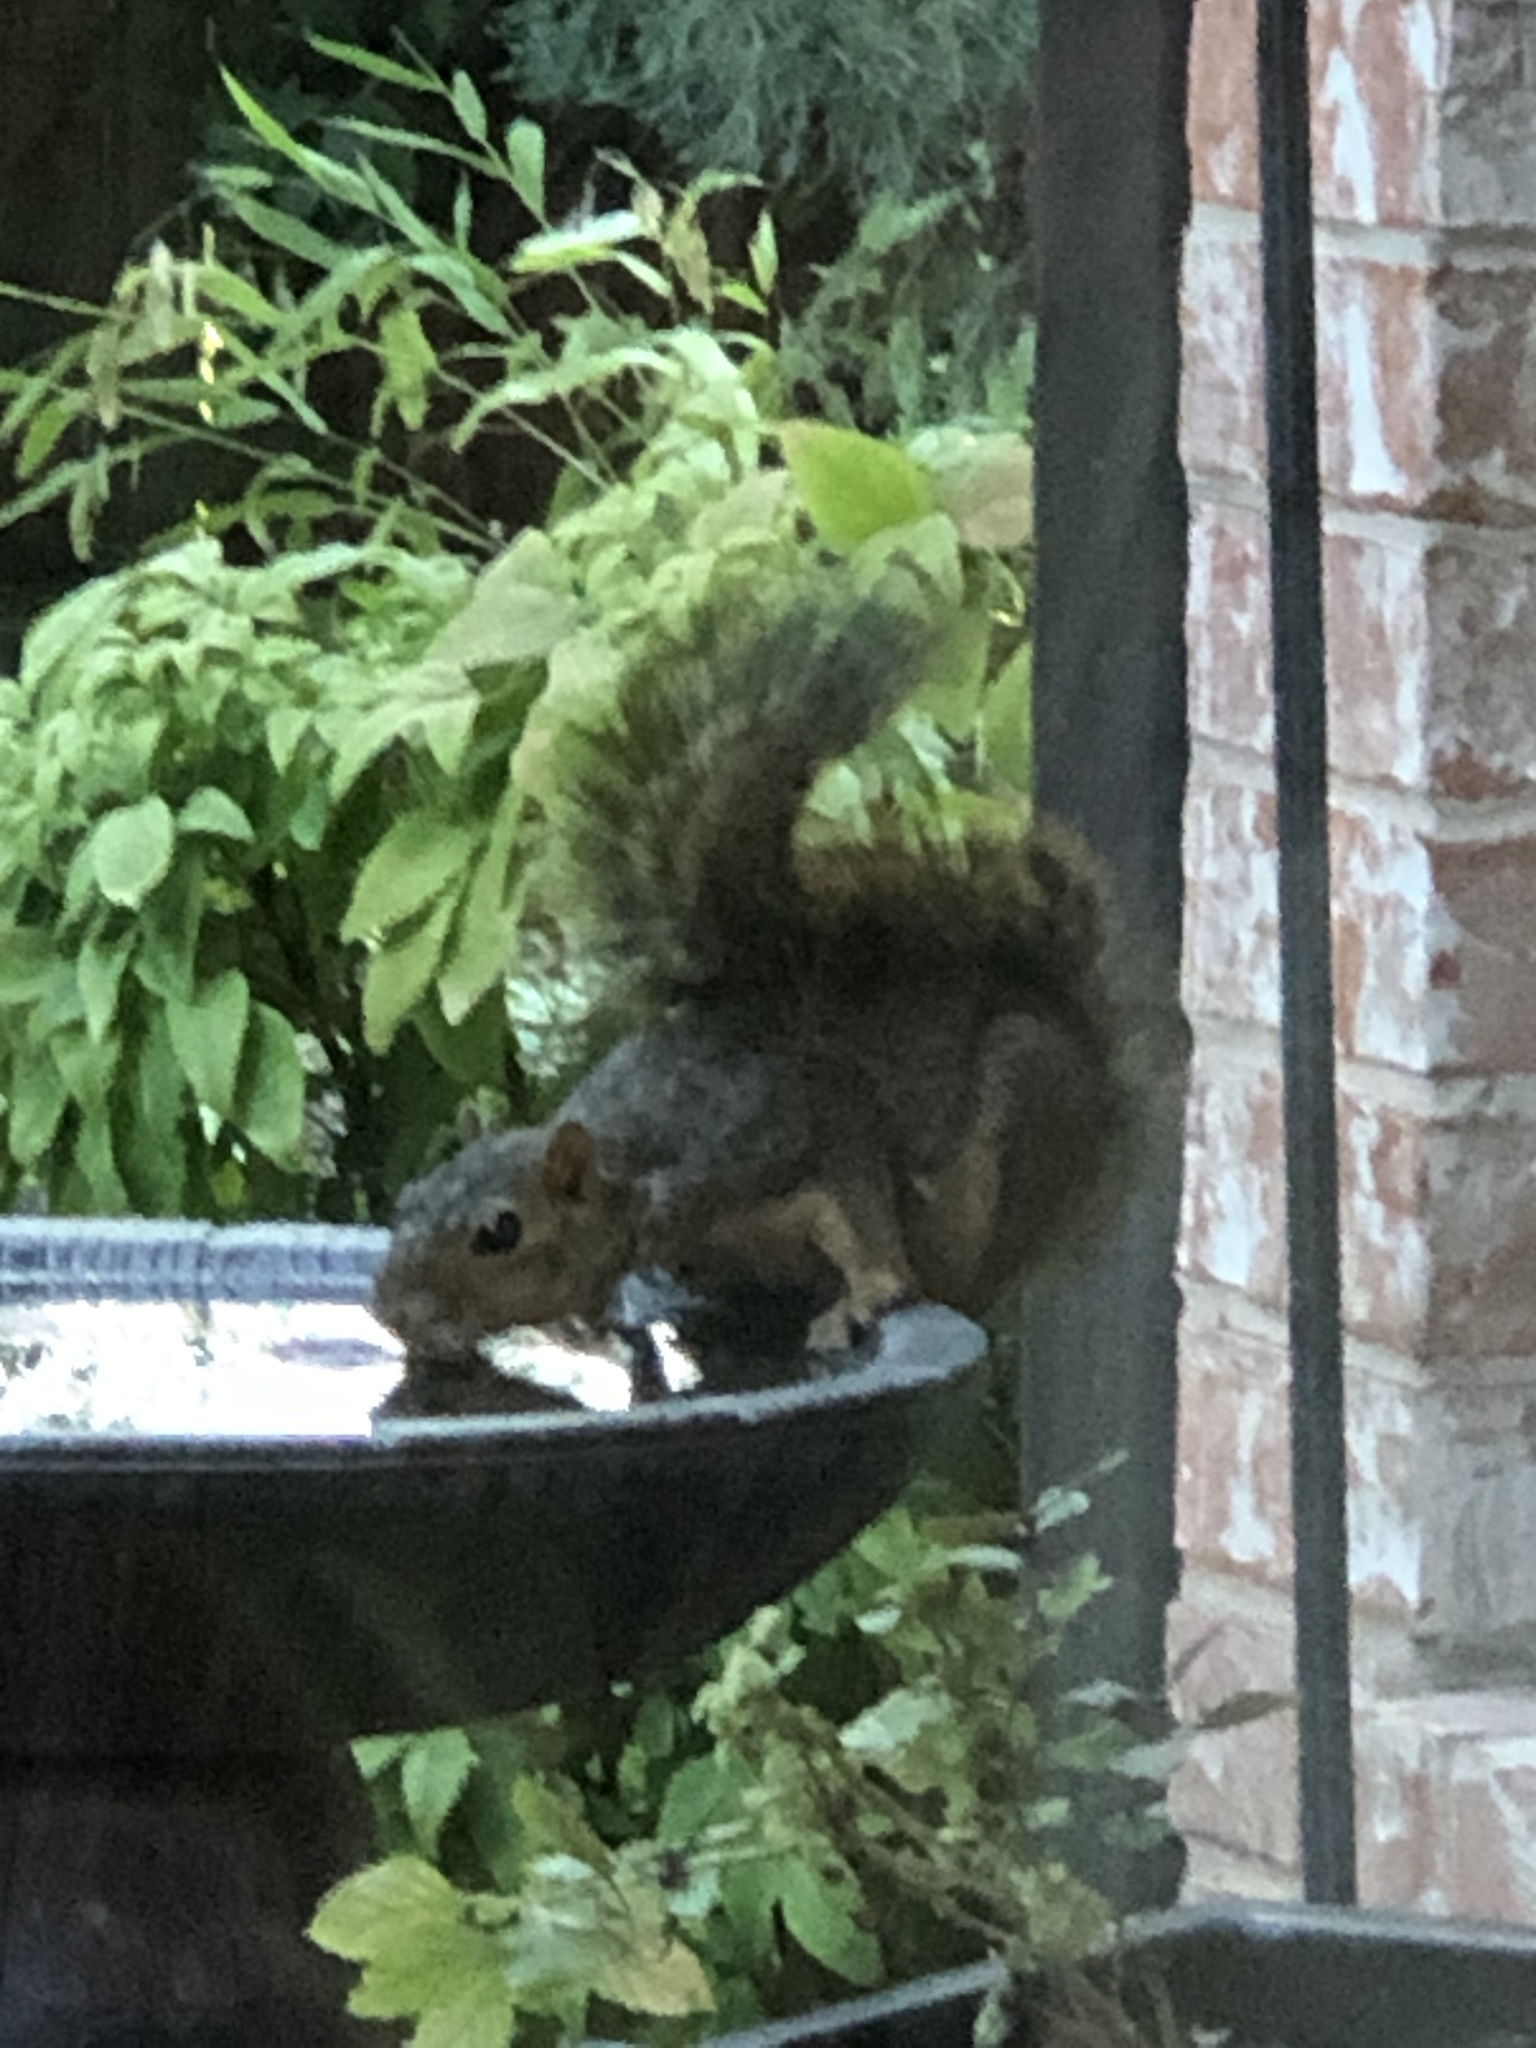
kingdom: Animalia
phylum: Chordata
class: Mammalia
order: Rodentia
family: Sciuridae
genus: Sciurus
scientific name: Sciurus niger
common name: Fox squirrel
